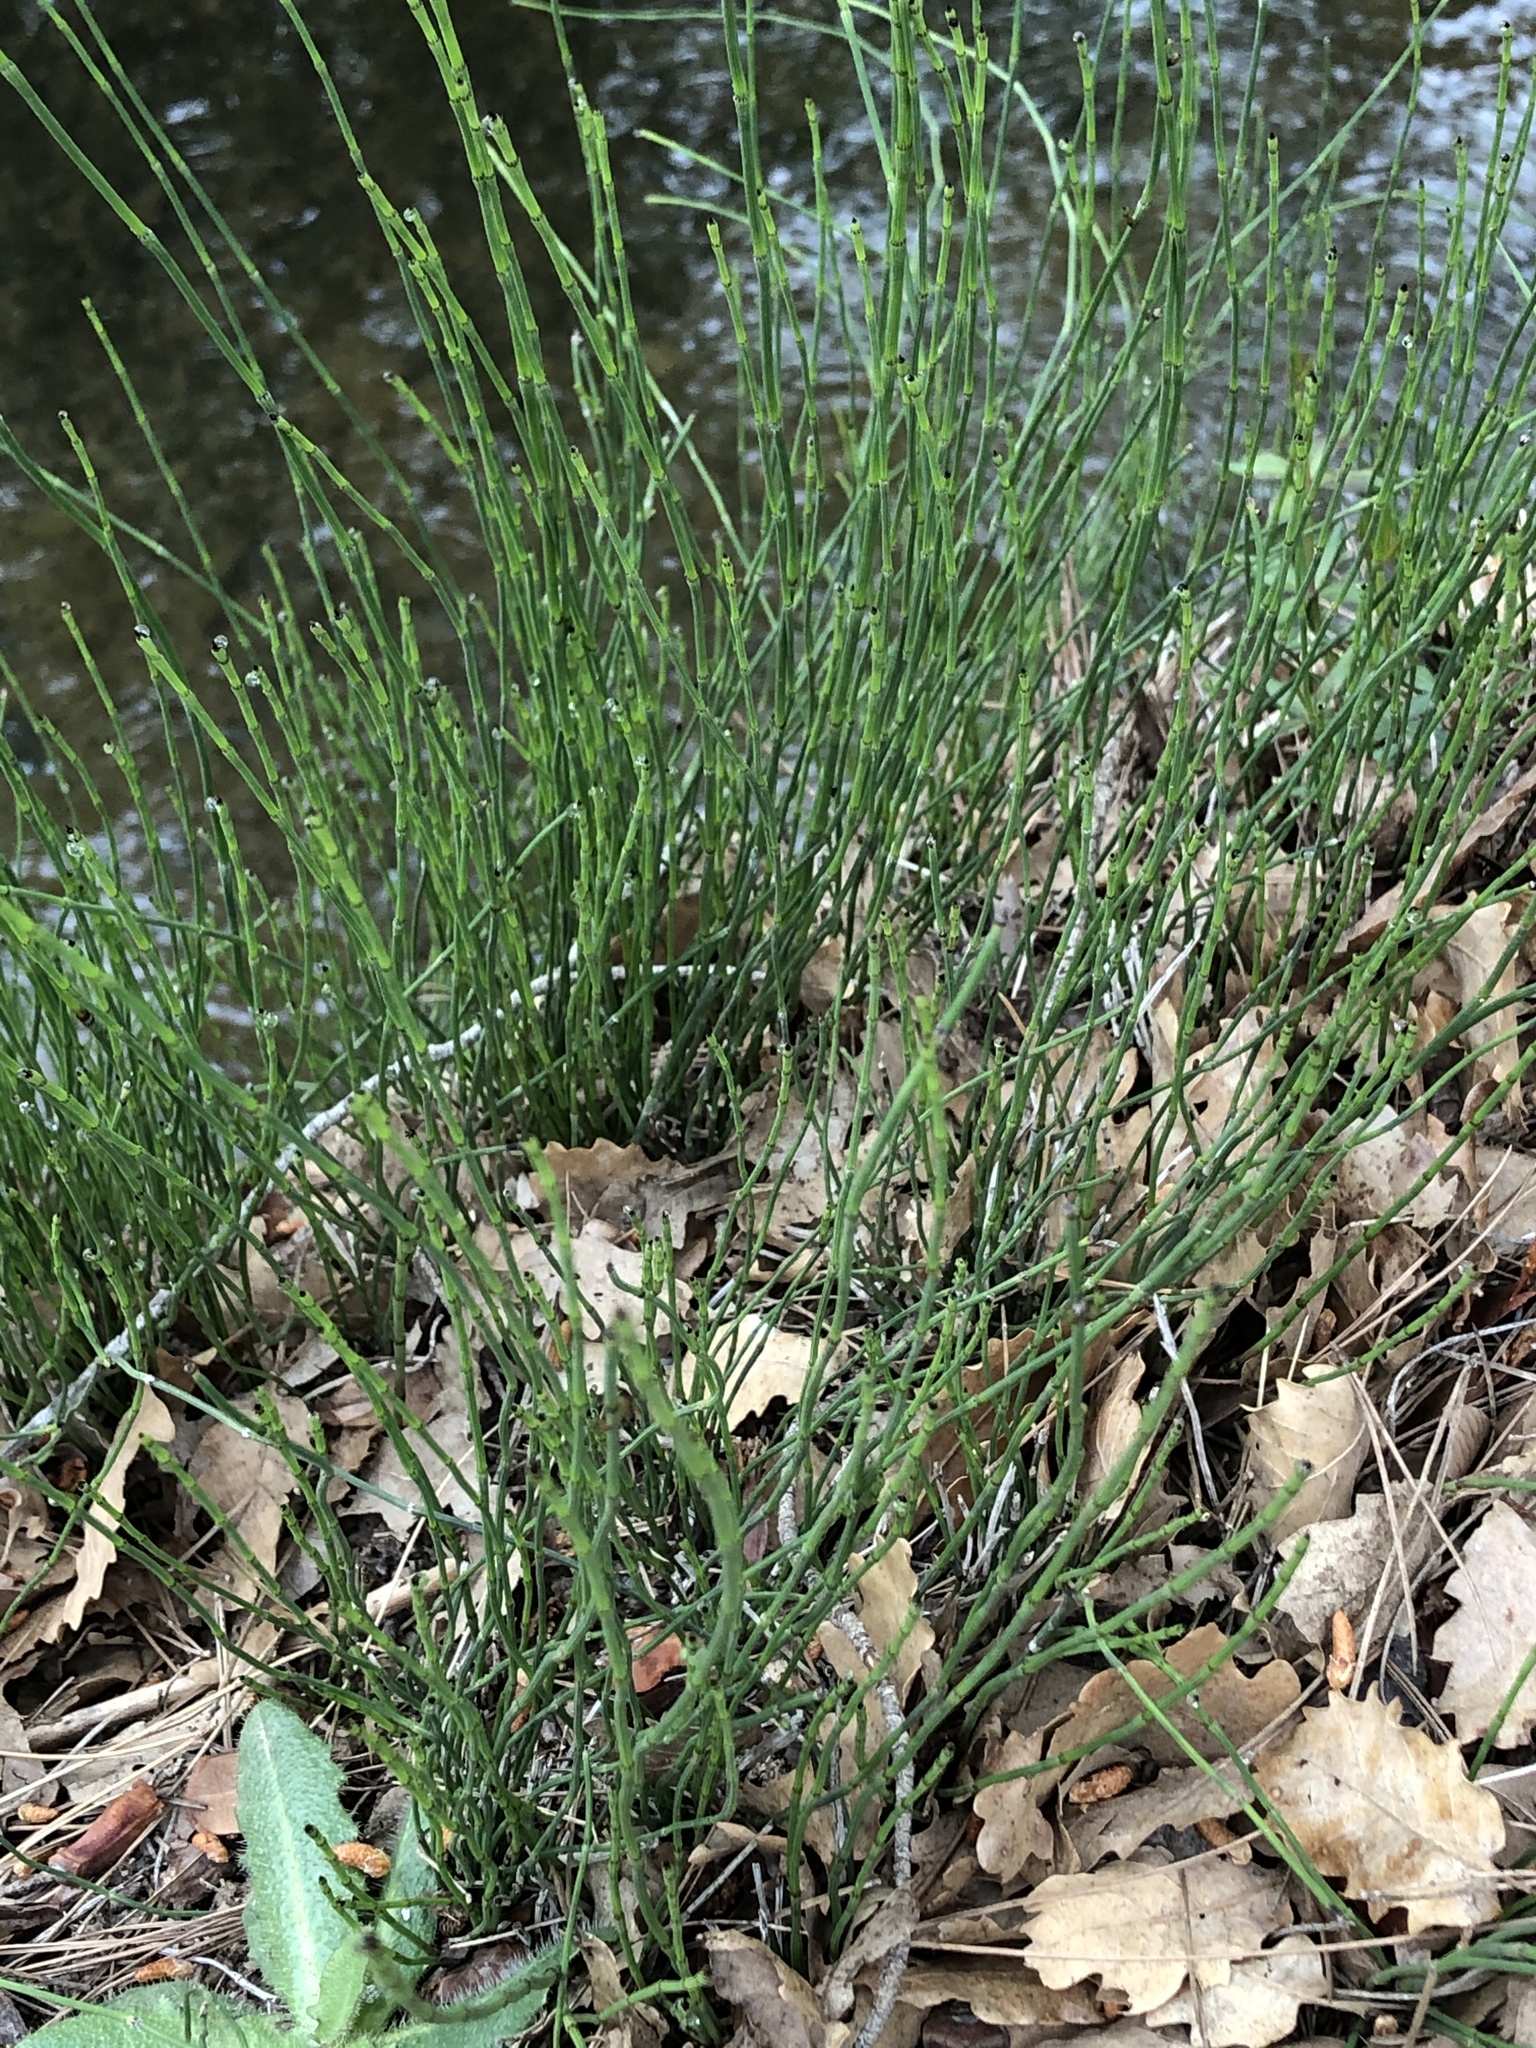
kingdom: Plantae
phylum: Tracheophyta
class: Polypodiopsida
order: Equisetales
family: Equisetaceae
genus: Equisetum
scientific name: Equisetum ramosissimum
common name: Branched horsetail
